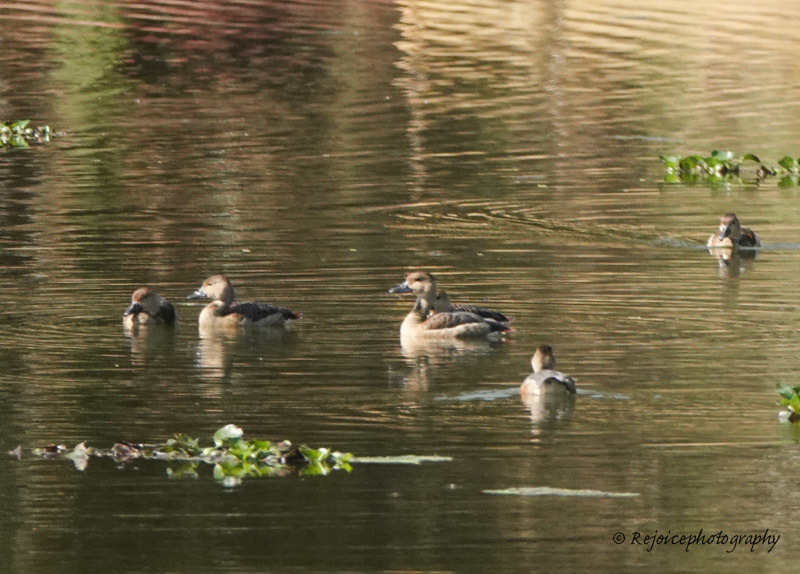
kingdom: Animalia
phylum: Chordata
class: Aves
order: Anseriformes
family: Anatidae
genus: Dendrocygna
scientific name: Dendrocygna javanica
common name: Lesser whistling-duck
